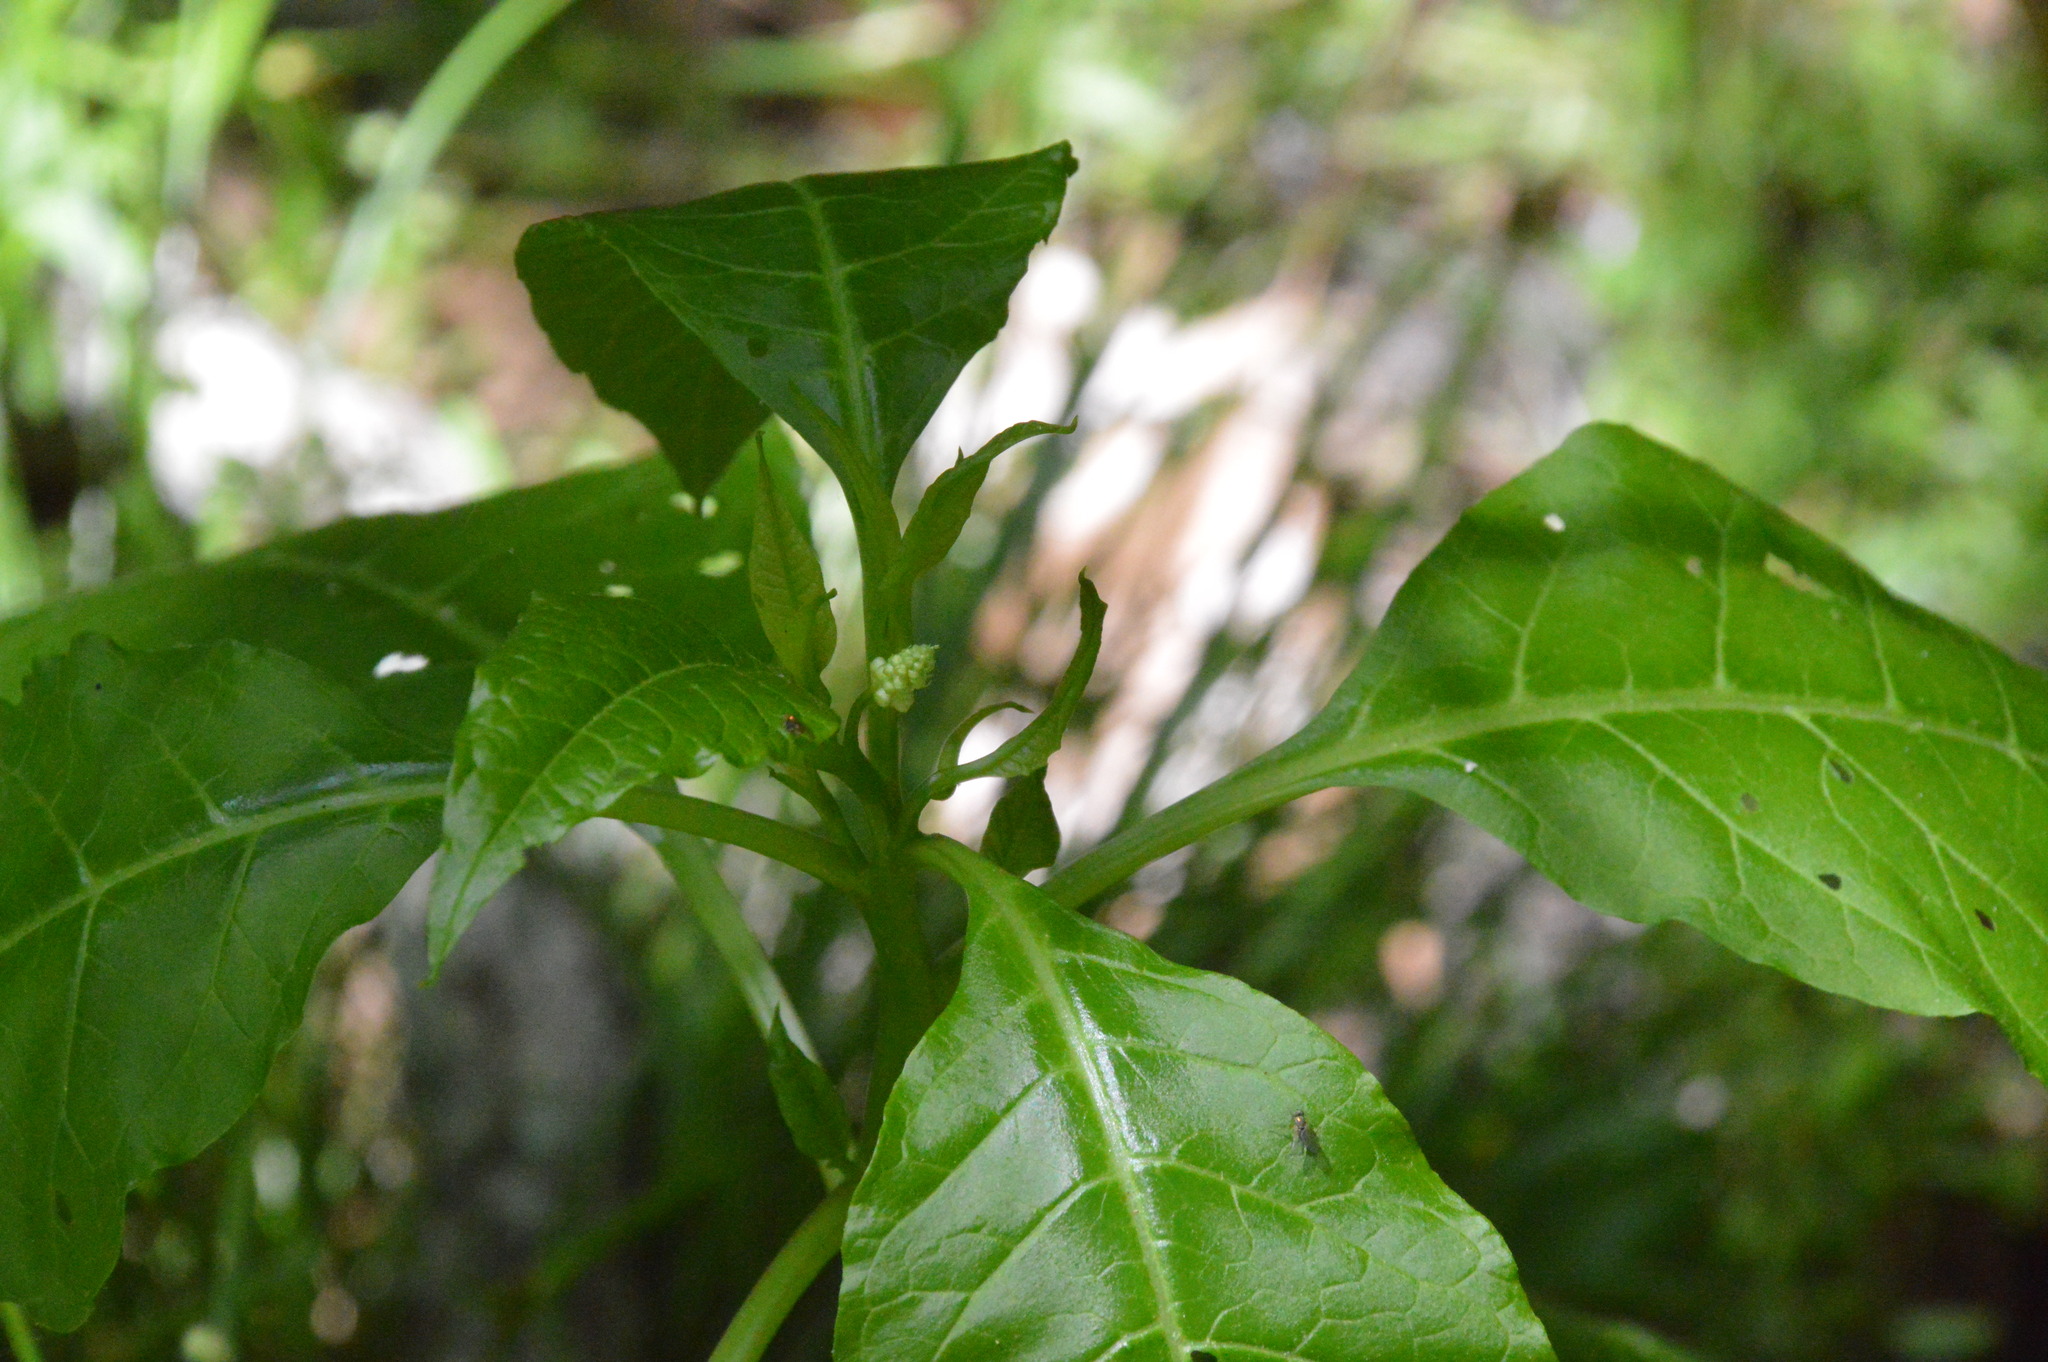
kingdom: Plantae
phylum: Tracheophyta
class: Magnoliopsida
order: Caryophyllales
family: Phytolaccaceae
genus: Phytolacca
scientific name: Phytolacca americana
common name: American pokeweed
